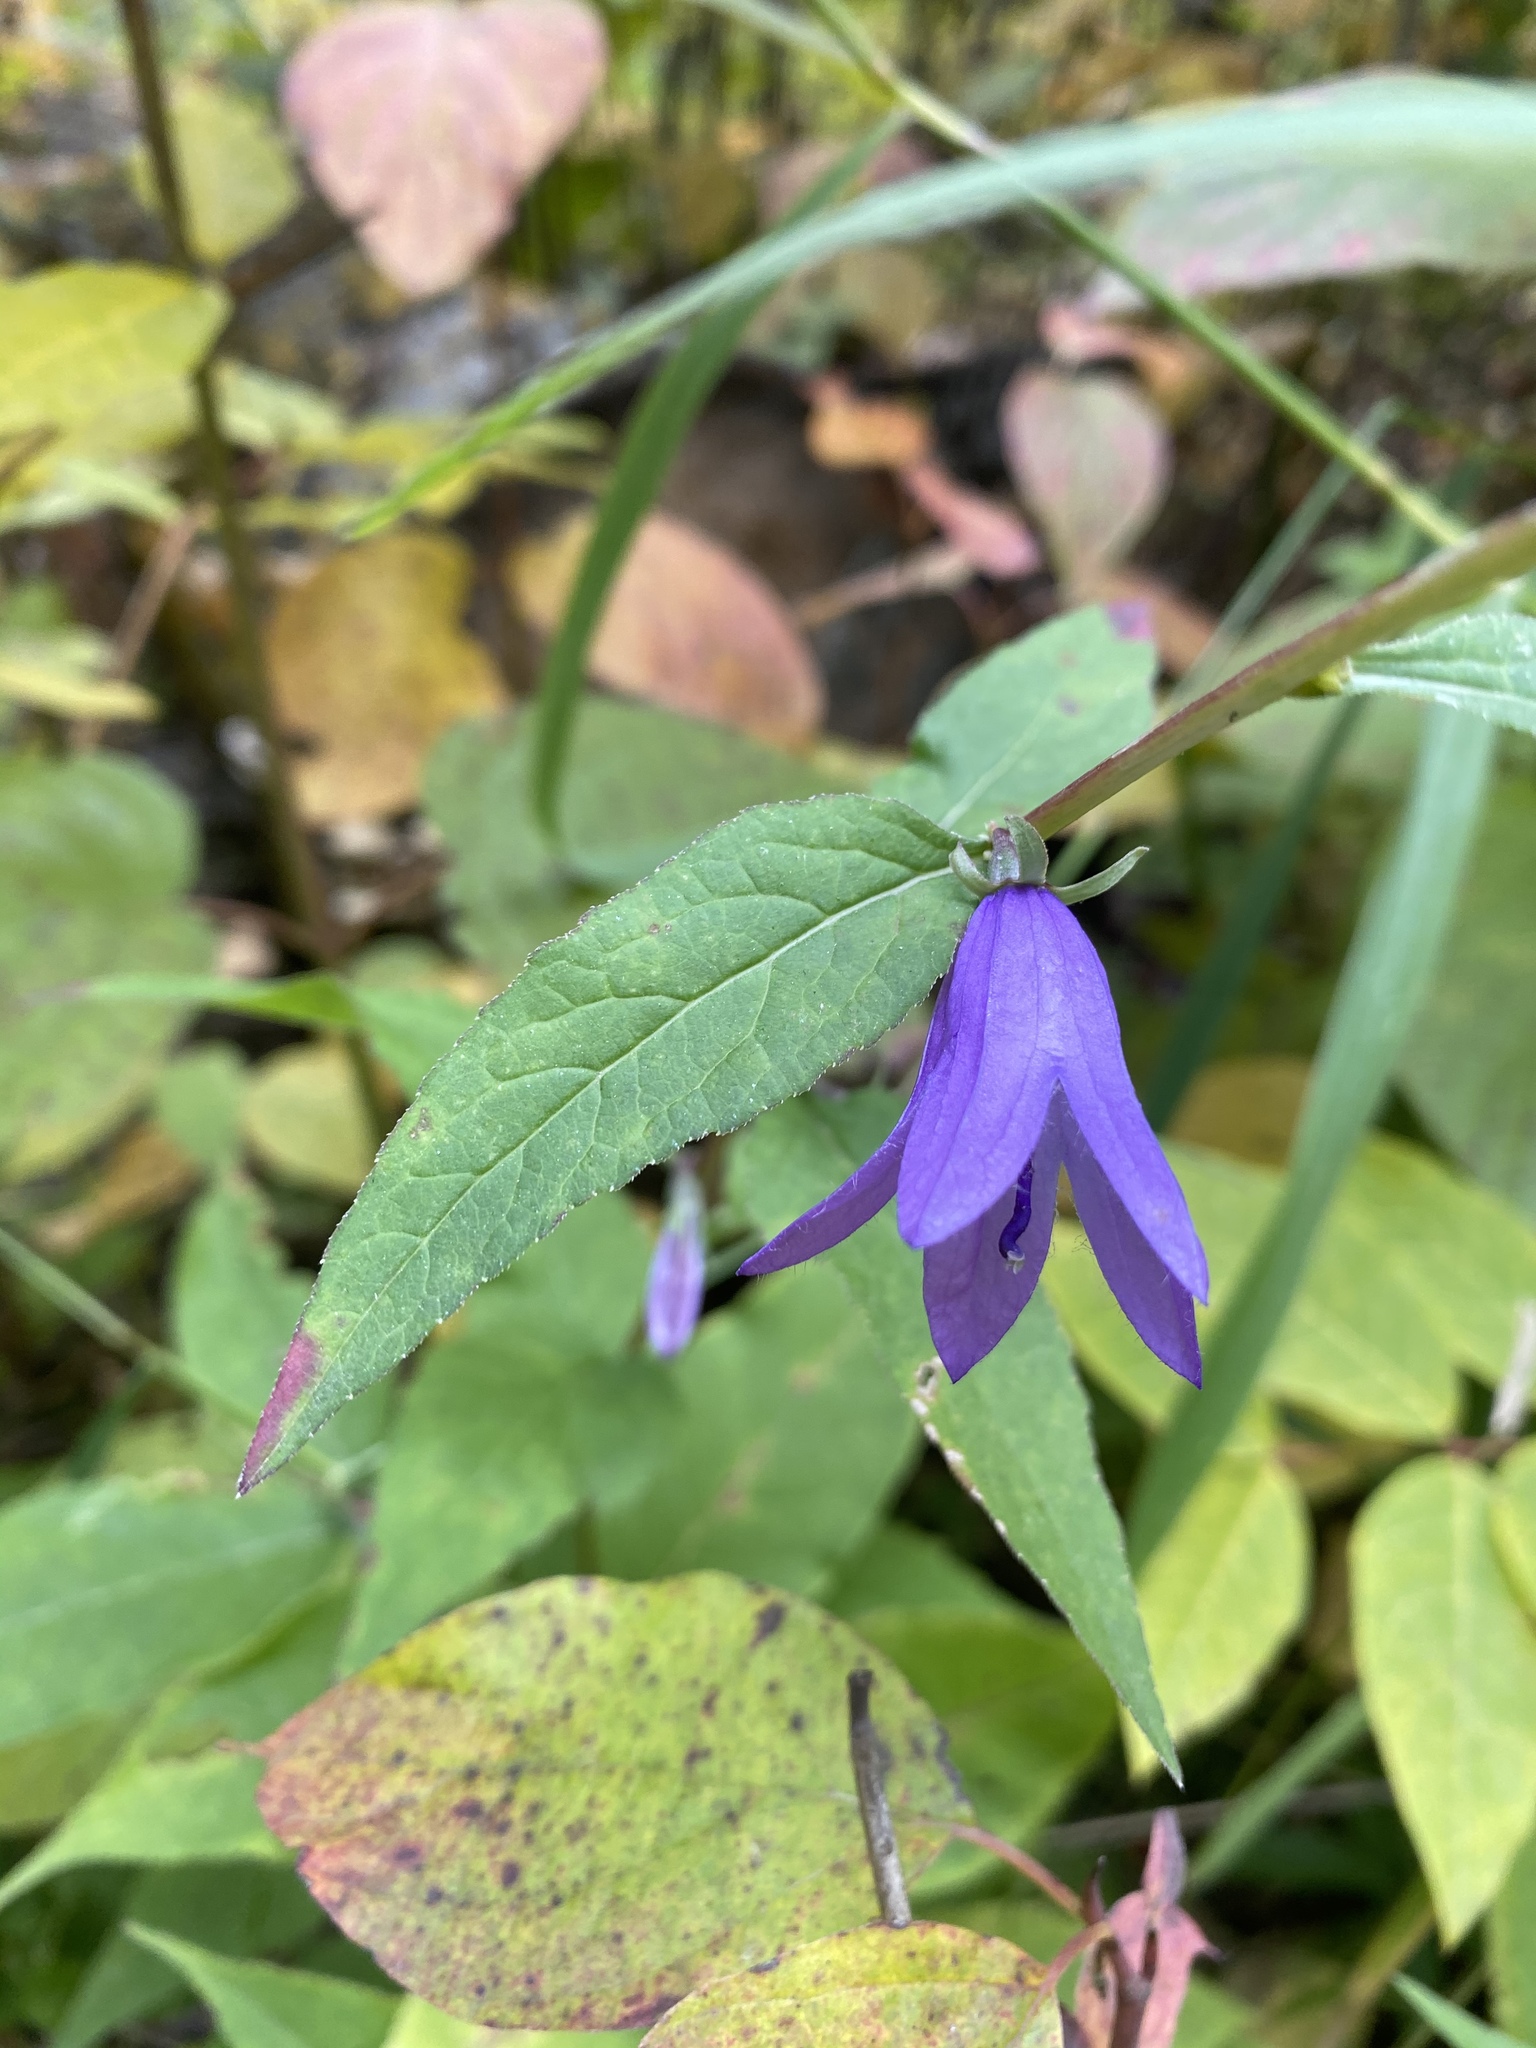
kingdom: Plantae
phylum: Tracheophyta
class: Magnoliopsida
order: Asterales
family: Campanulaceae
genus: Campanula
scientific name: Campanula rapunculoides
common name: Creeping bellflower
